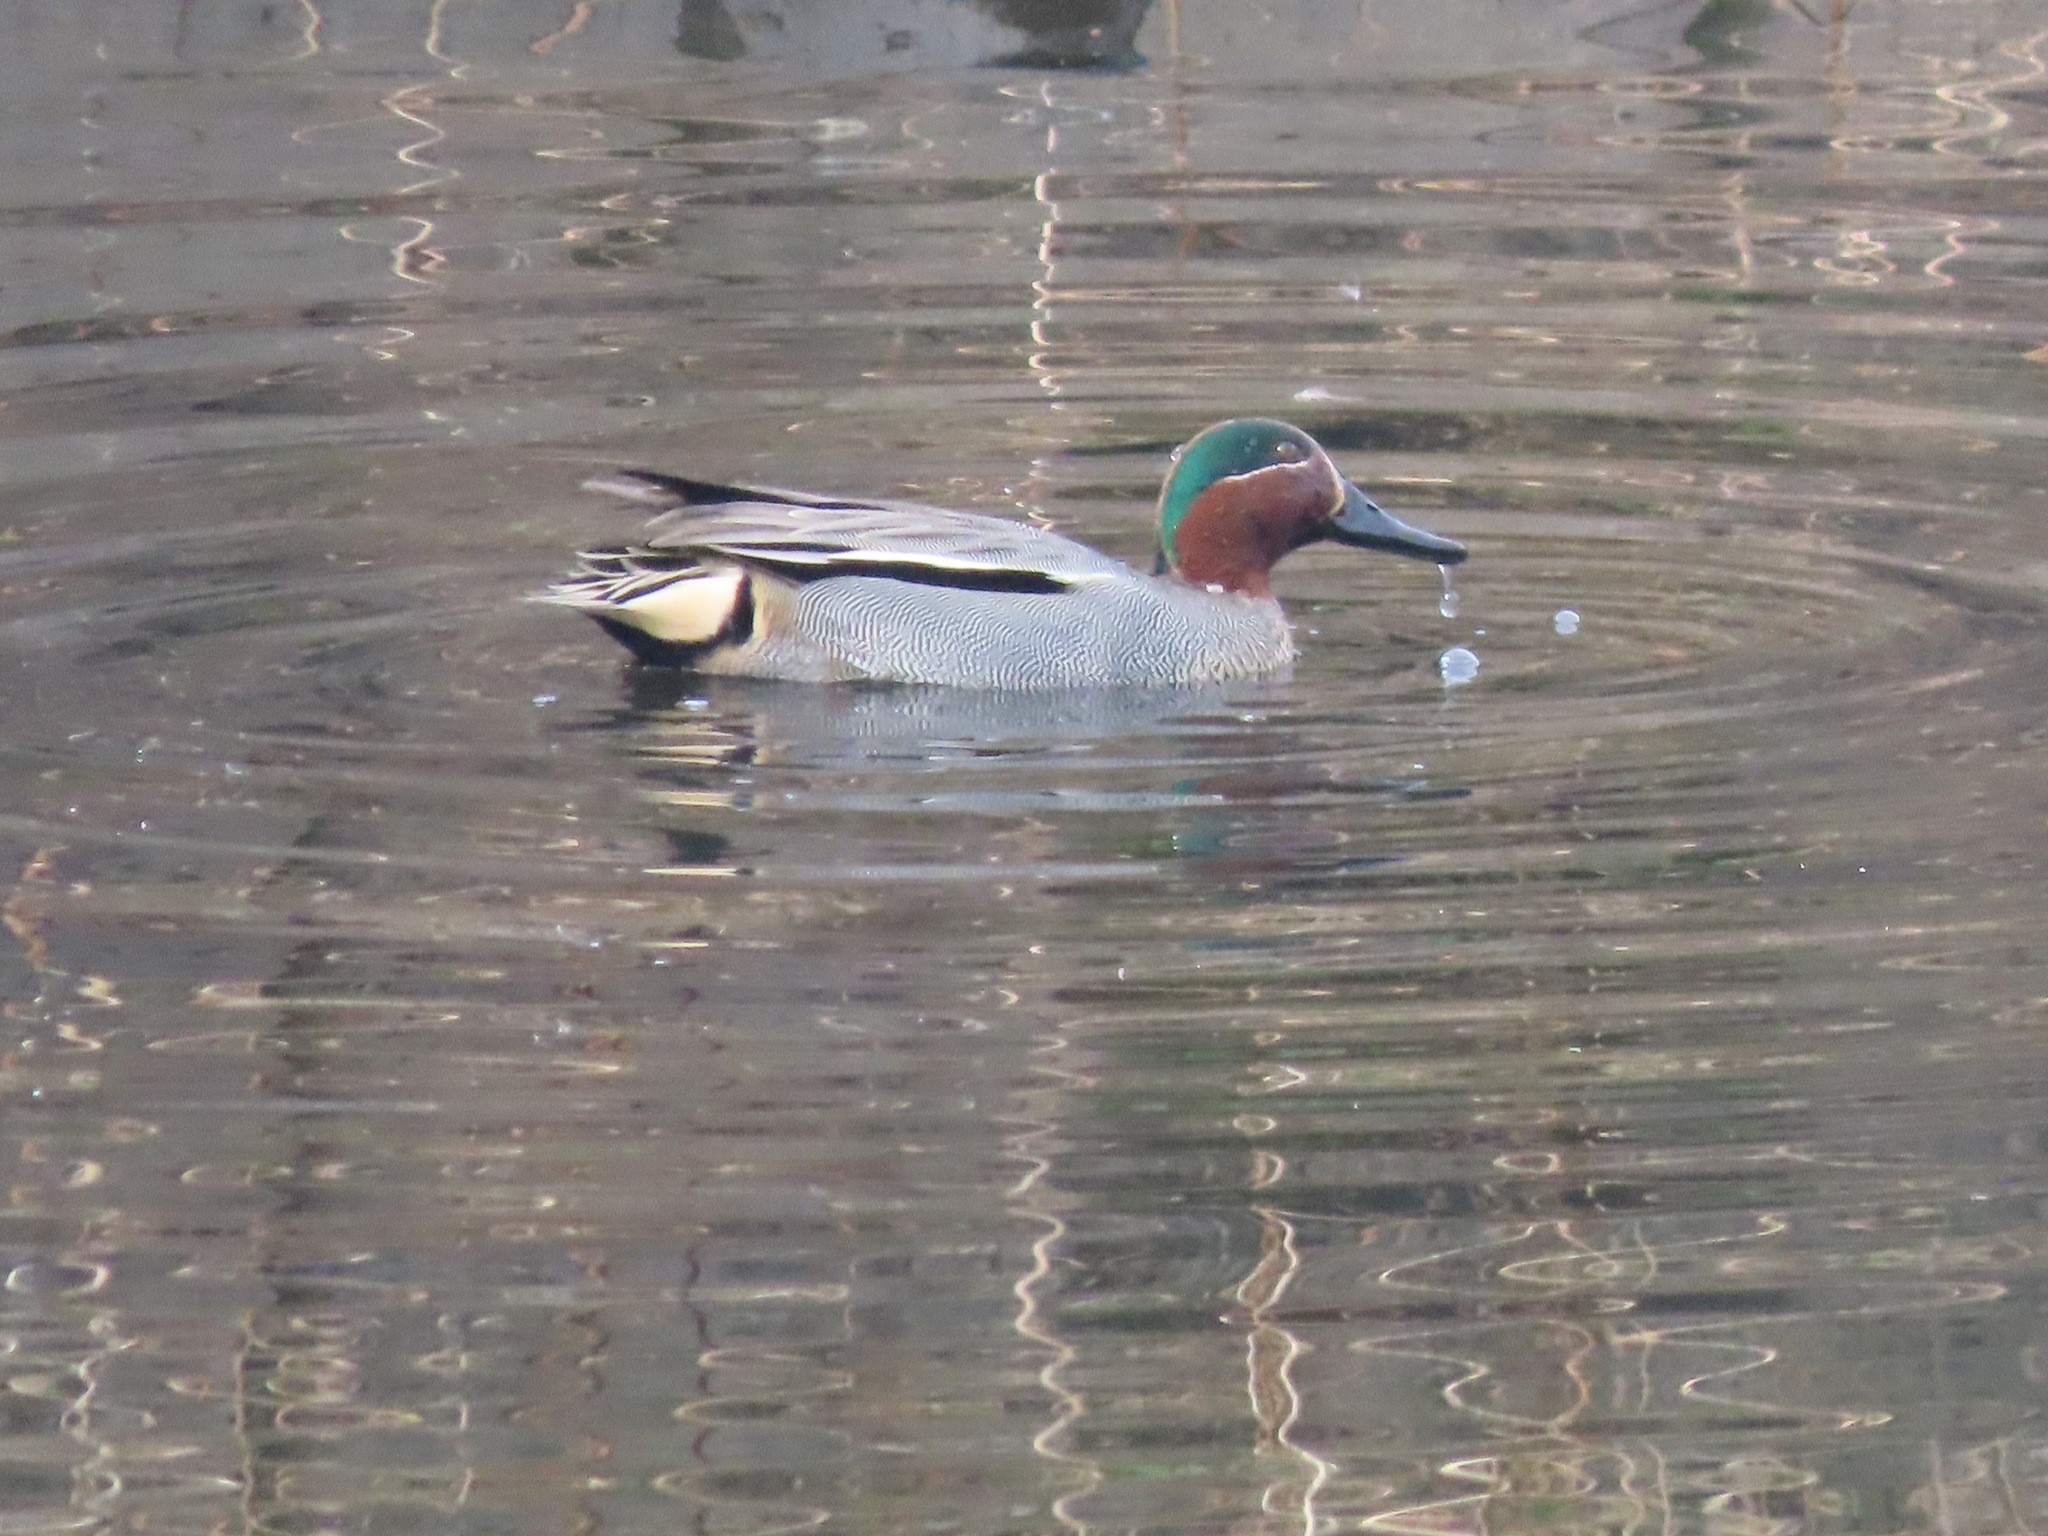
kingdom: Animalia
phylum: Chordata
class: Aves
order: Anseriformes
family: Anatidae
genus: Anas
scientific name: Anas crecca
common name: Eurasian teal
